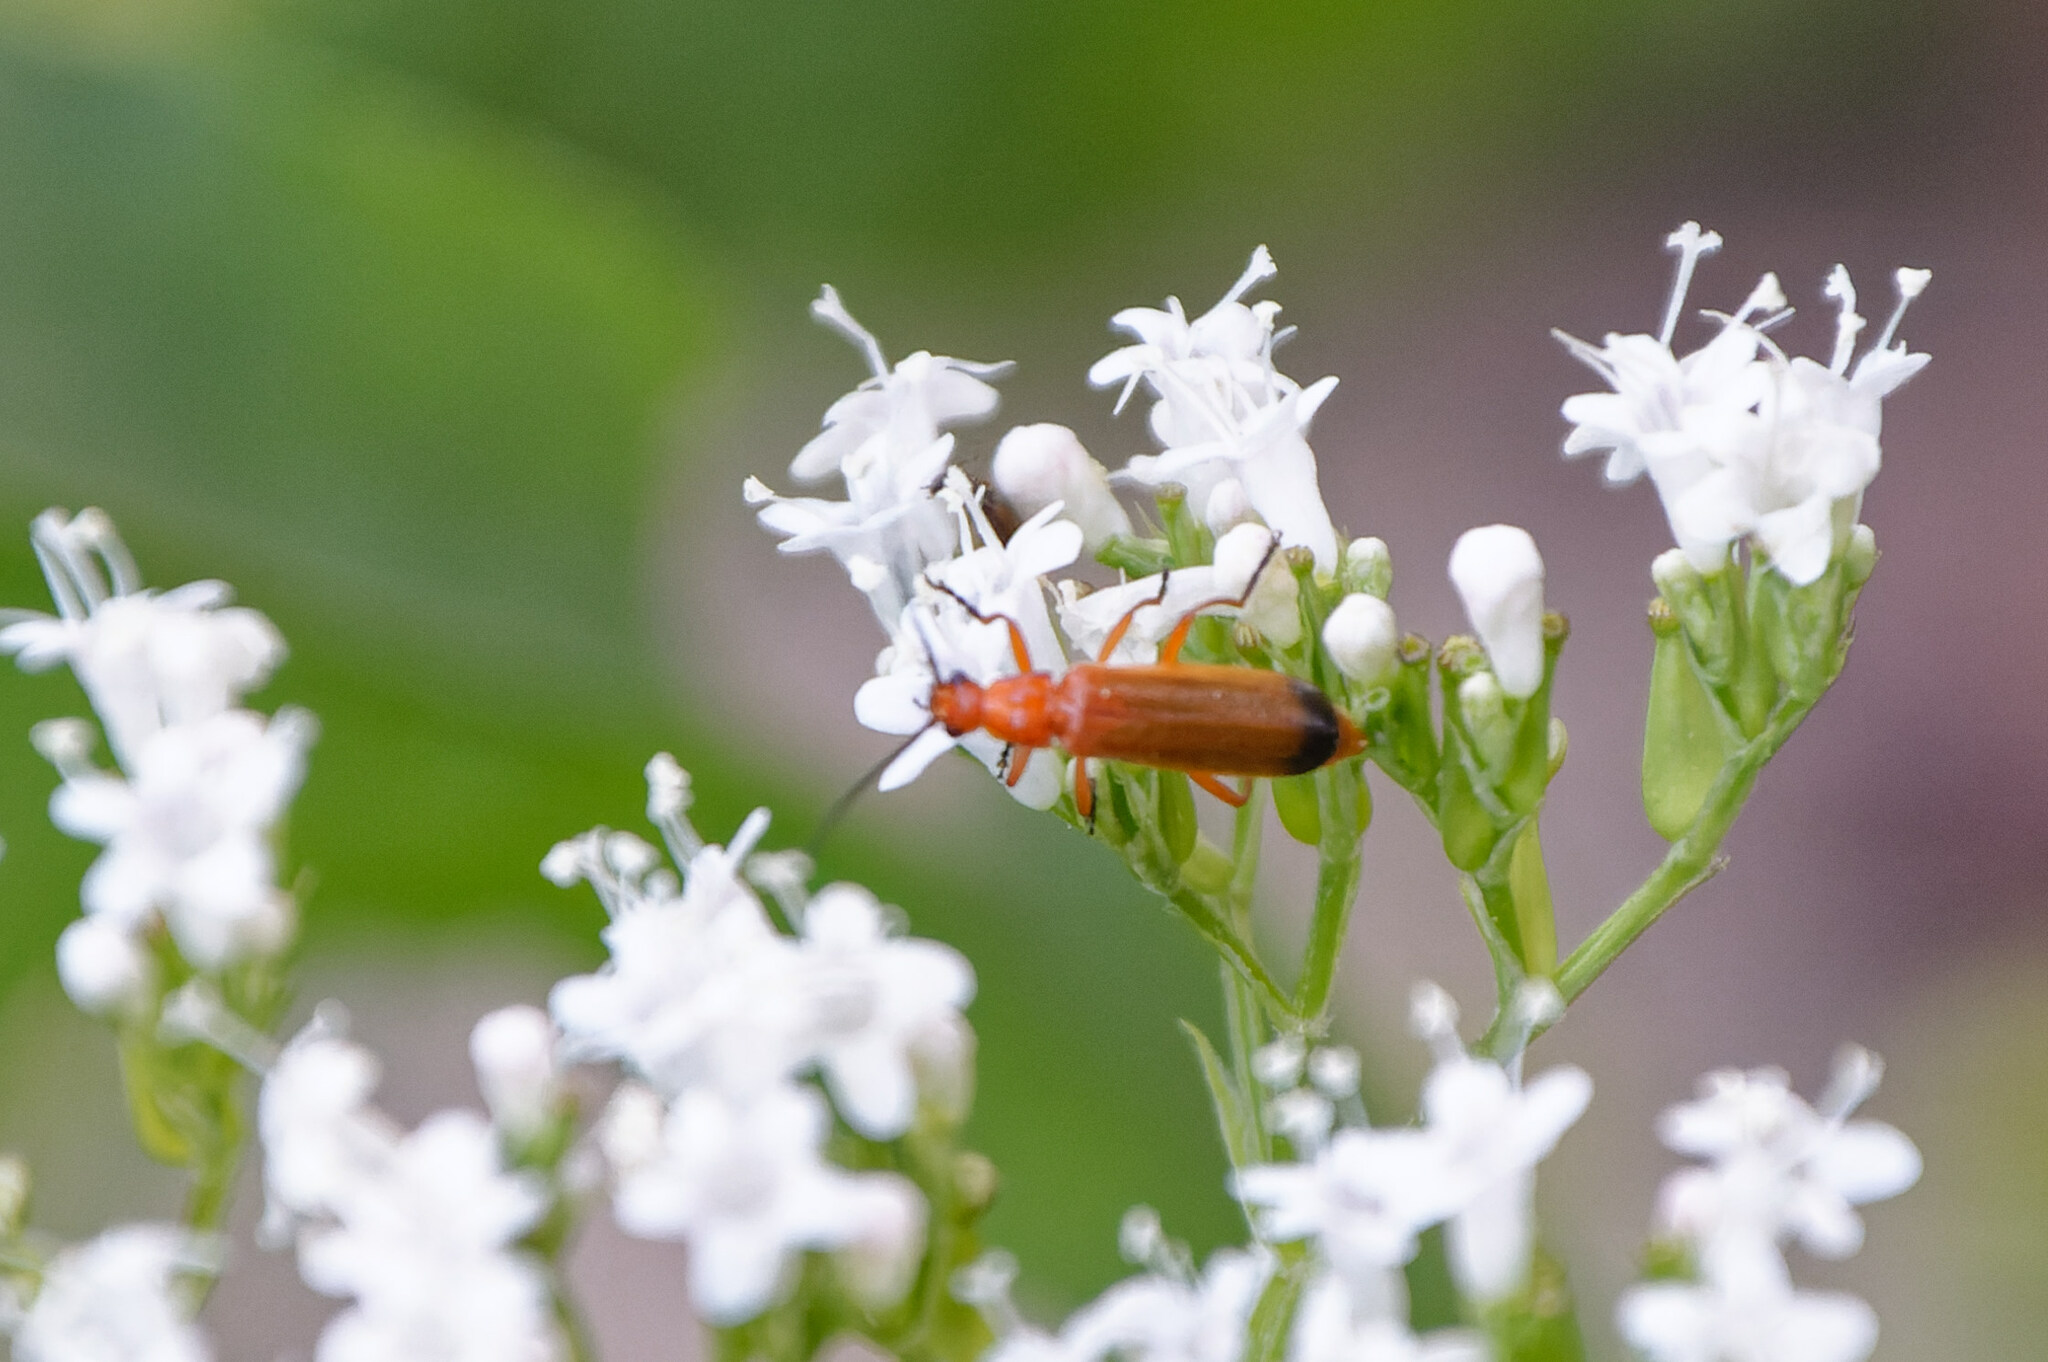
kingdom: Animalia
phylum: Arthropoda
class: Insecta
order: Coleoptera
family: Cantharidae
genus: Rhagonycha
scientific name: Rhagonycha fulva
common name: Common red soldier beetle
